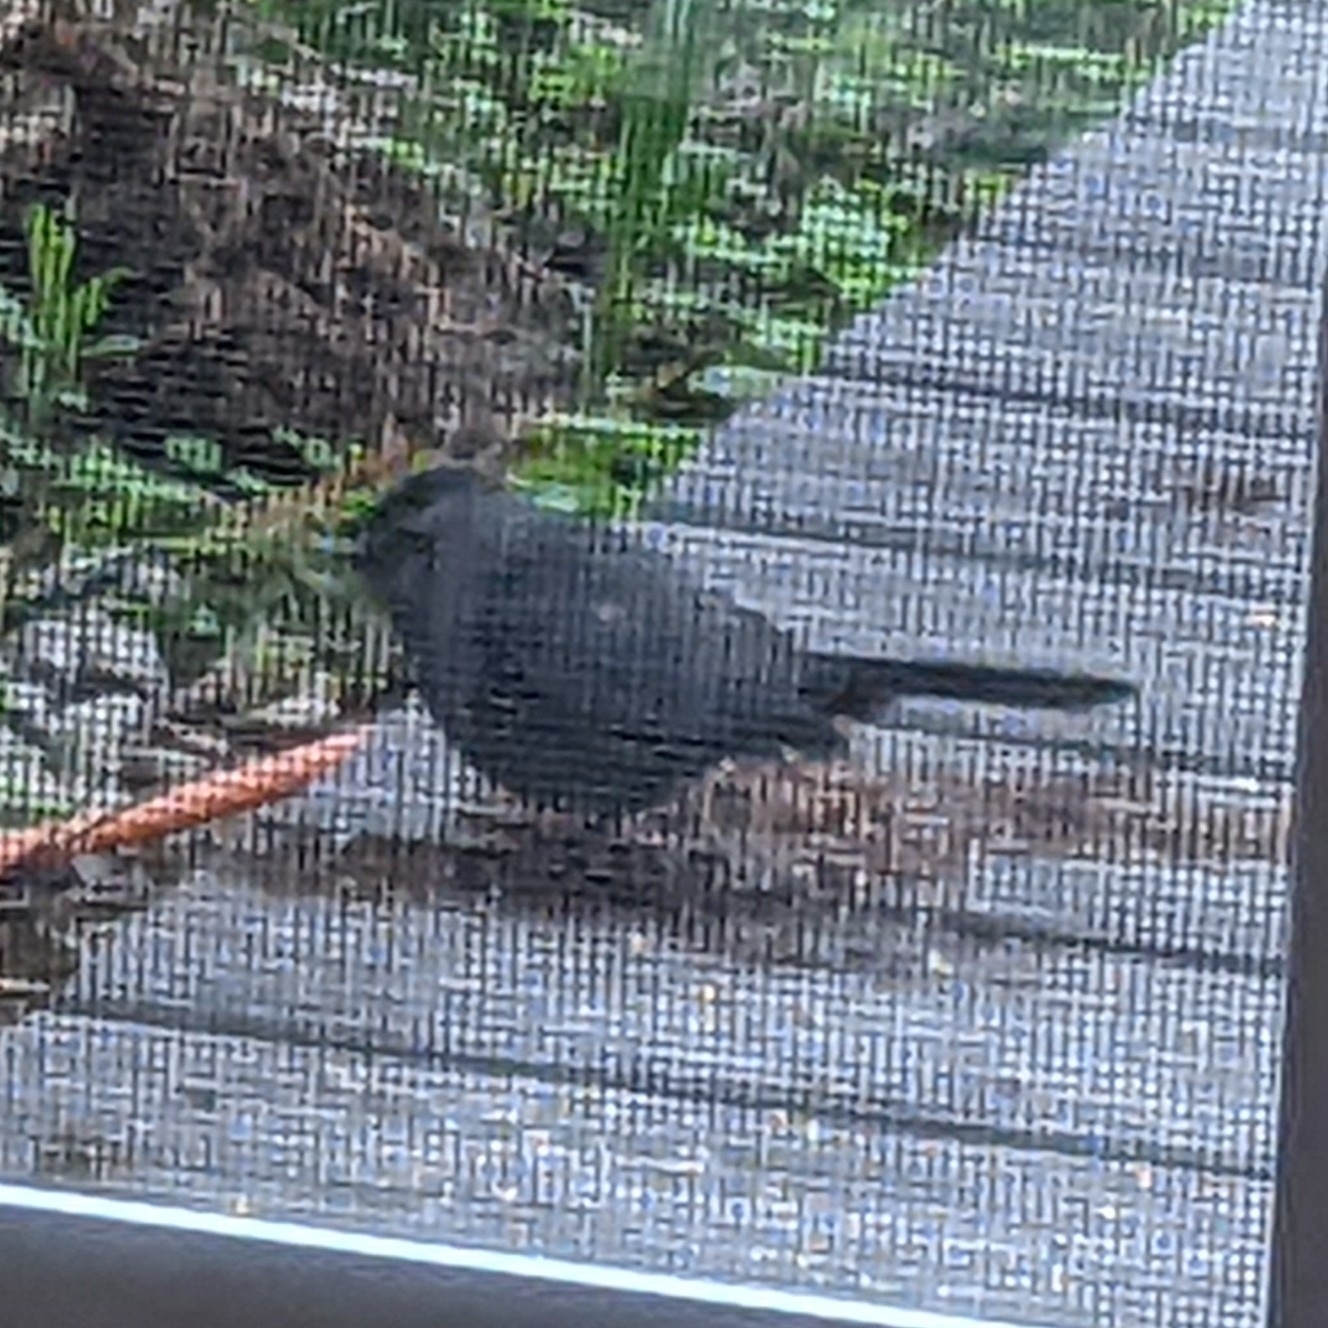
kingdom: Animalia
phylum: Chordata
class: Aves
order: Passeriformes
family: Mimidae
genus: Dumetella
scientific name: Dumetella carolinensis
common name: Gray catbird
